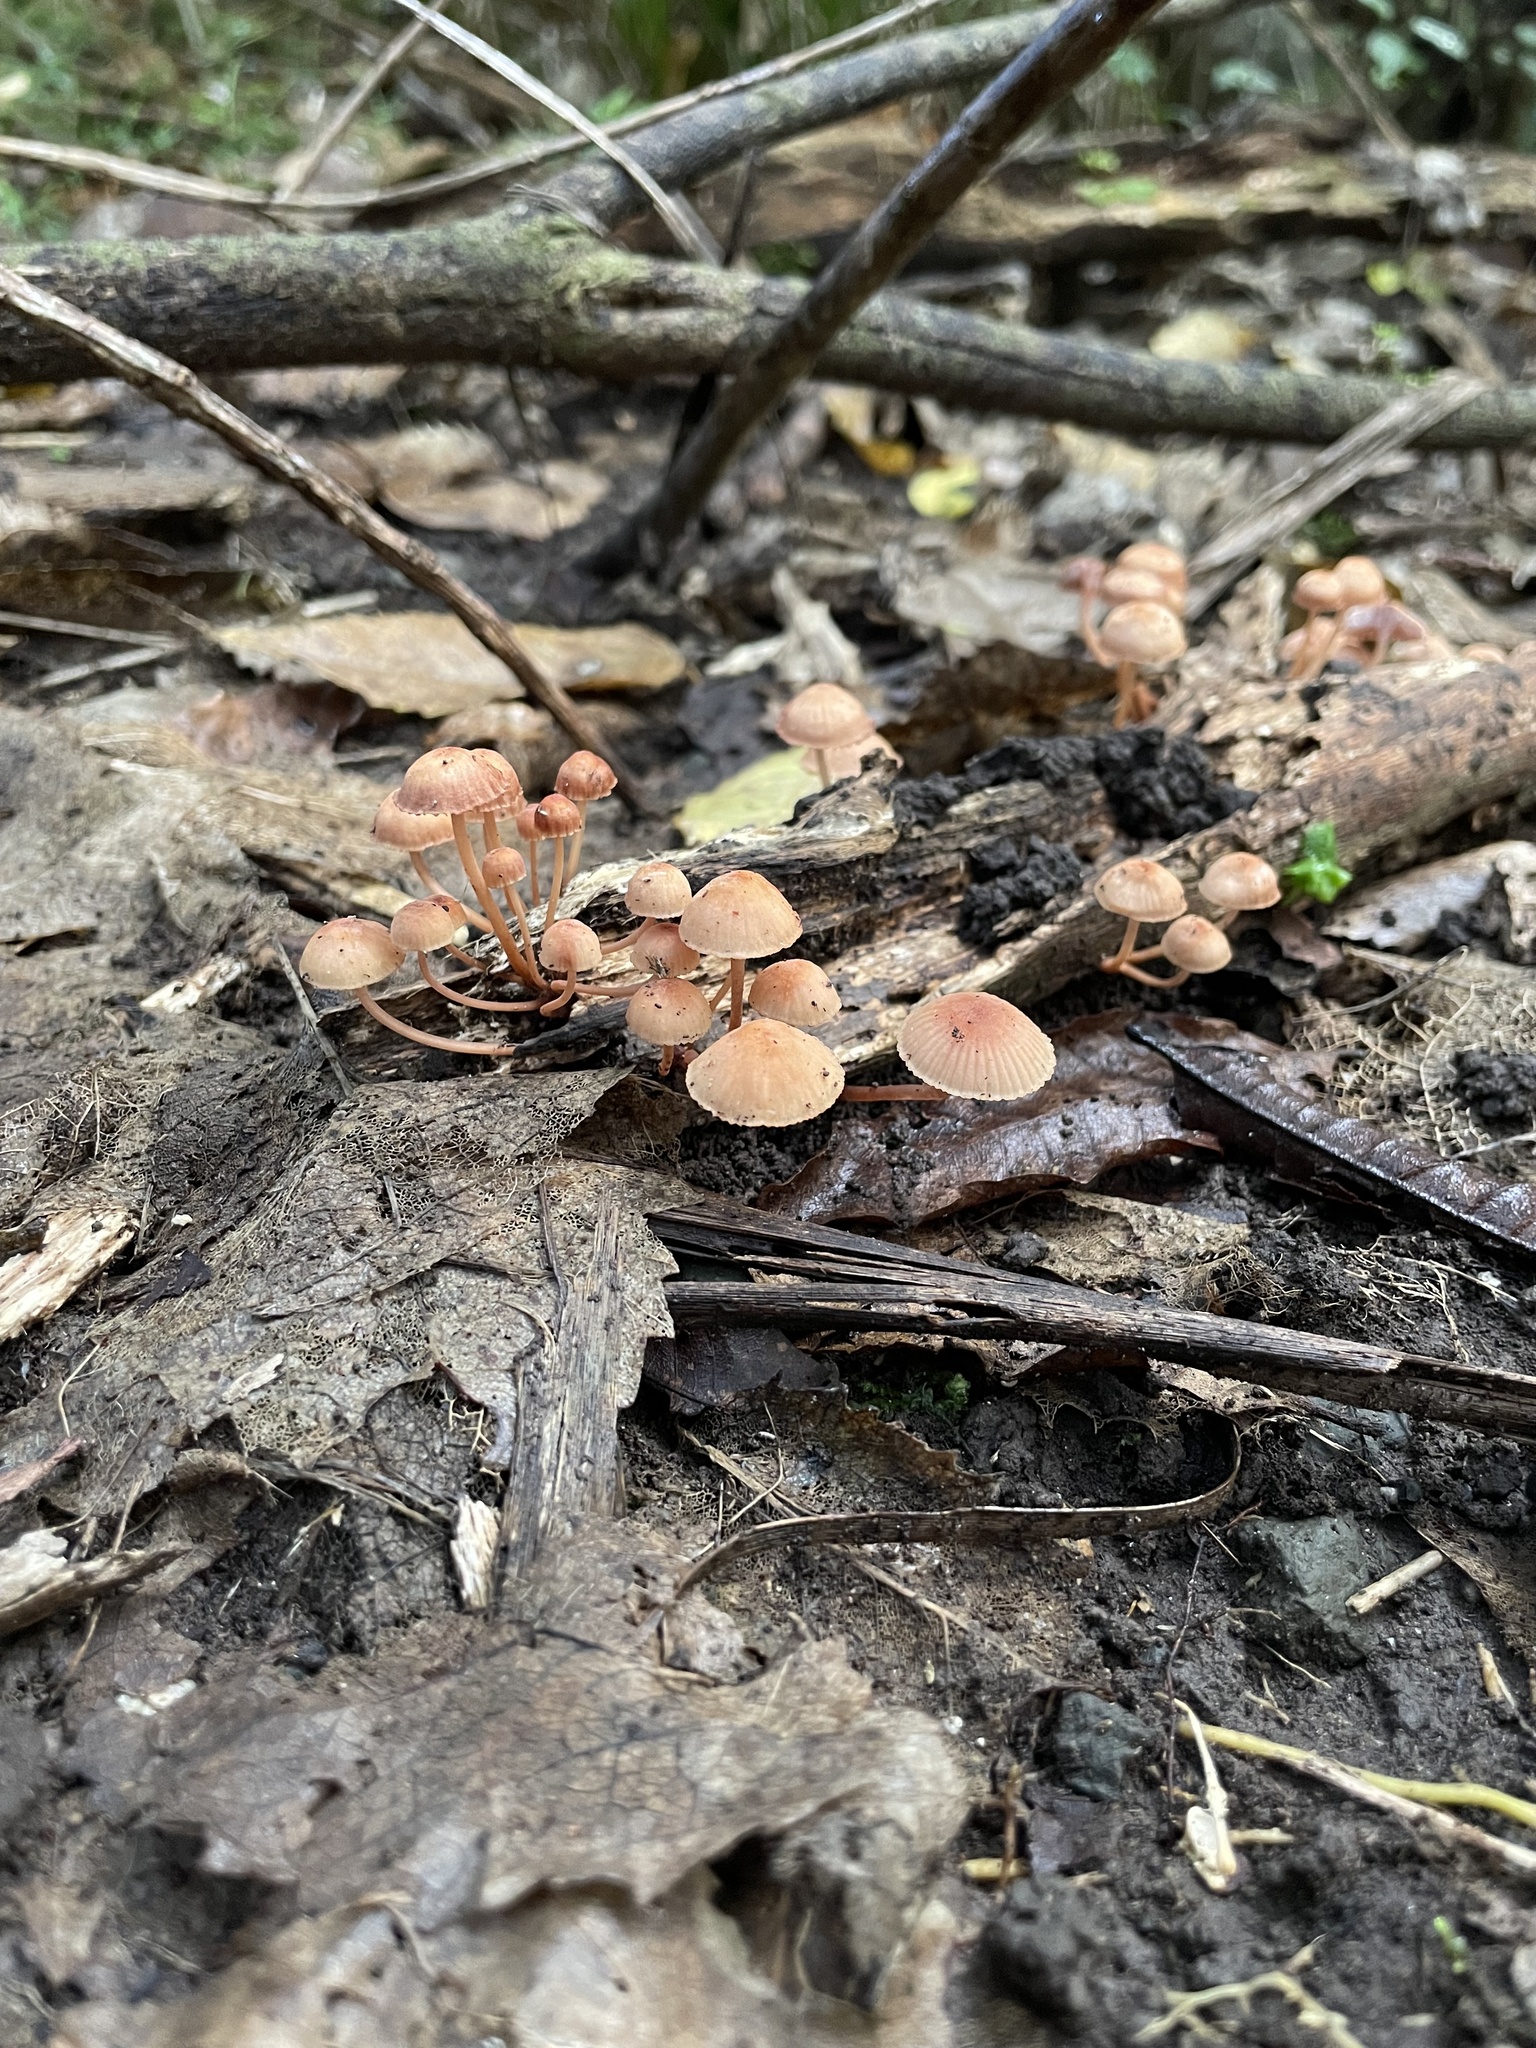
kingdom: Fungi
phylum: Basidiomycota
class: Agaricomycetes
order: Agaricales
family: Mycenaceae
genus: Mycena
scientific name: Mycena parsonsii
